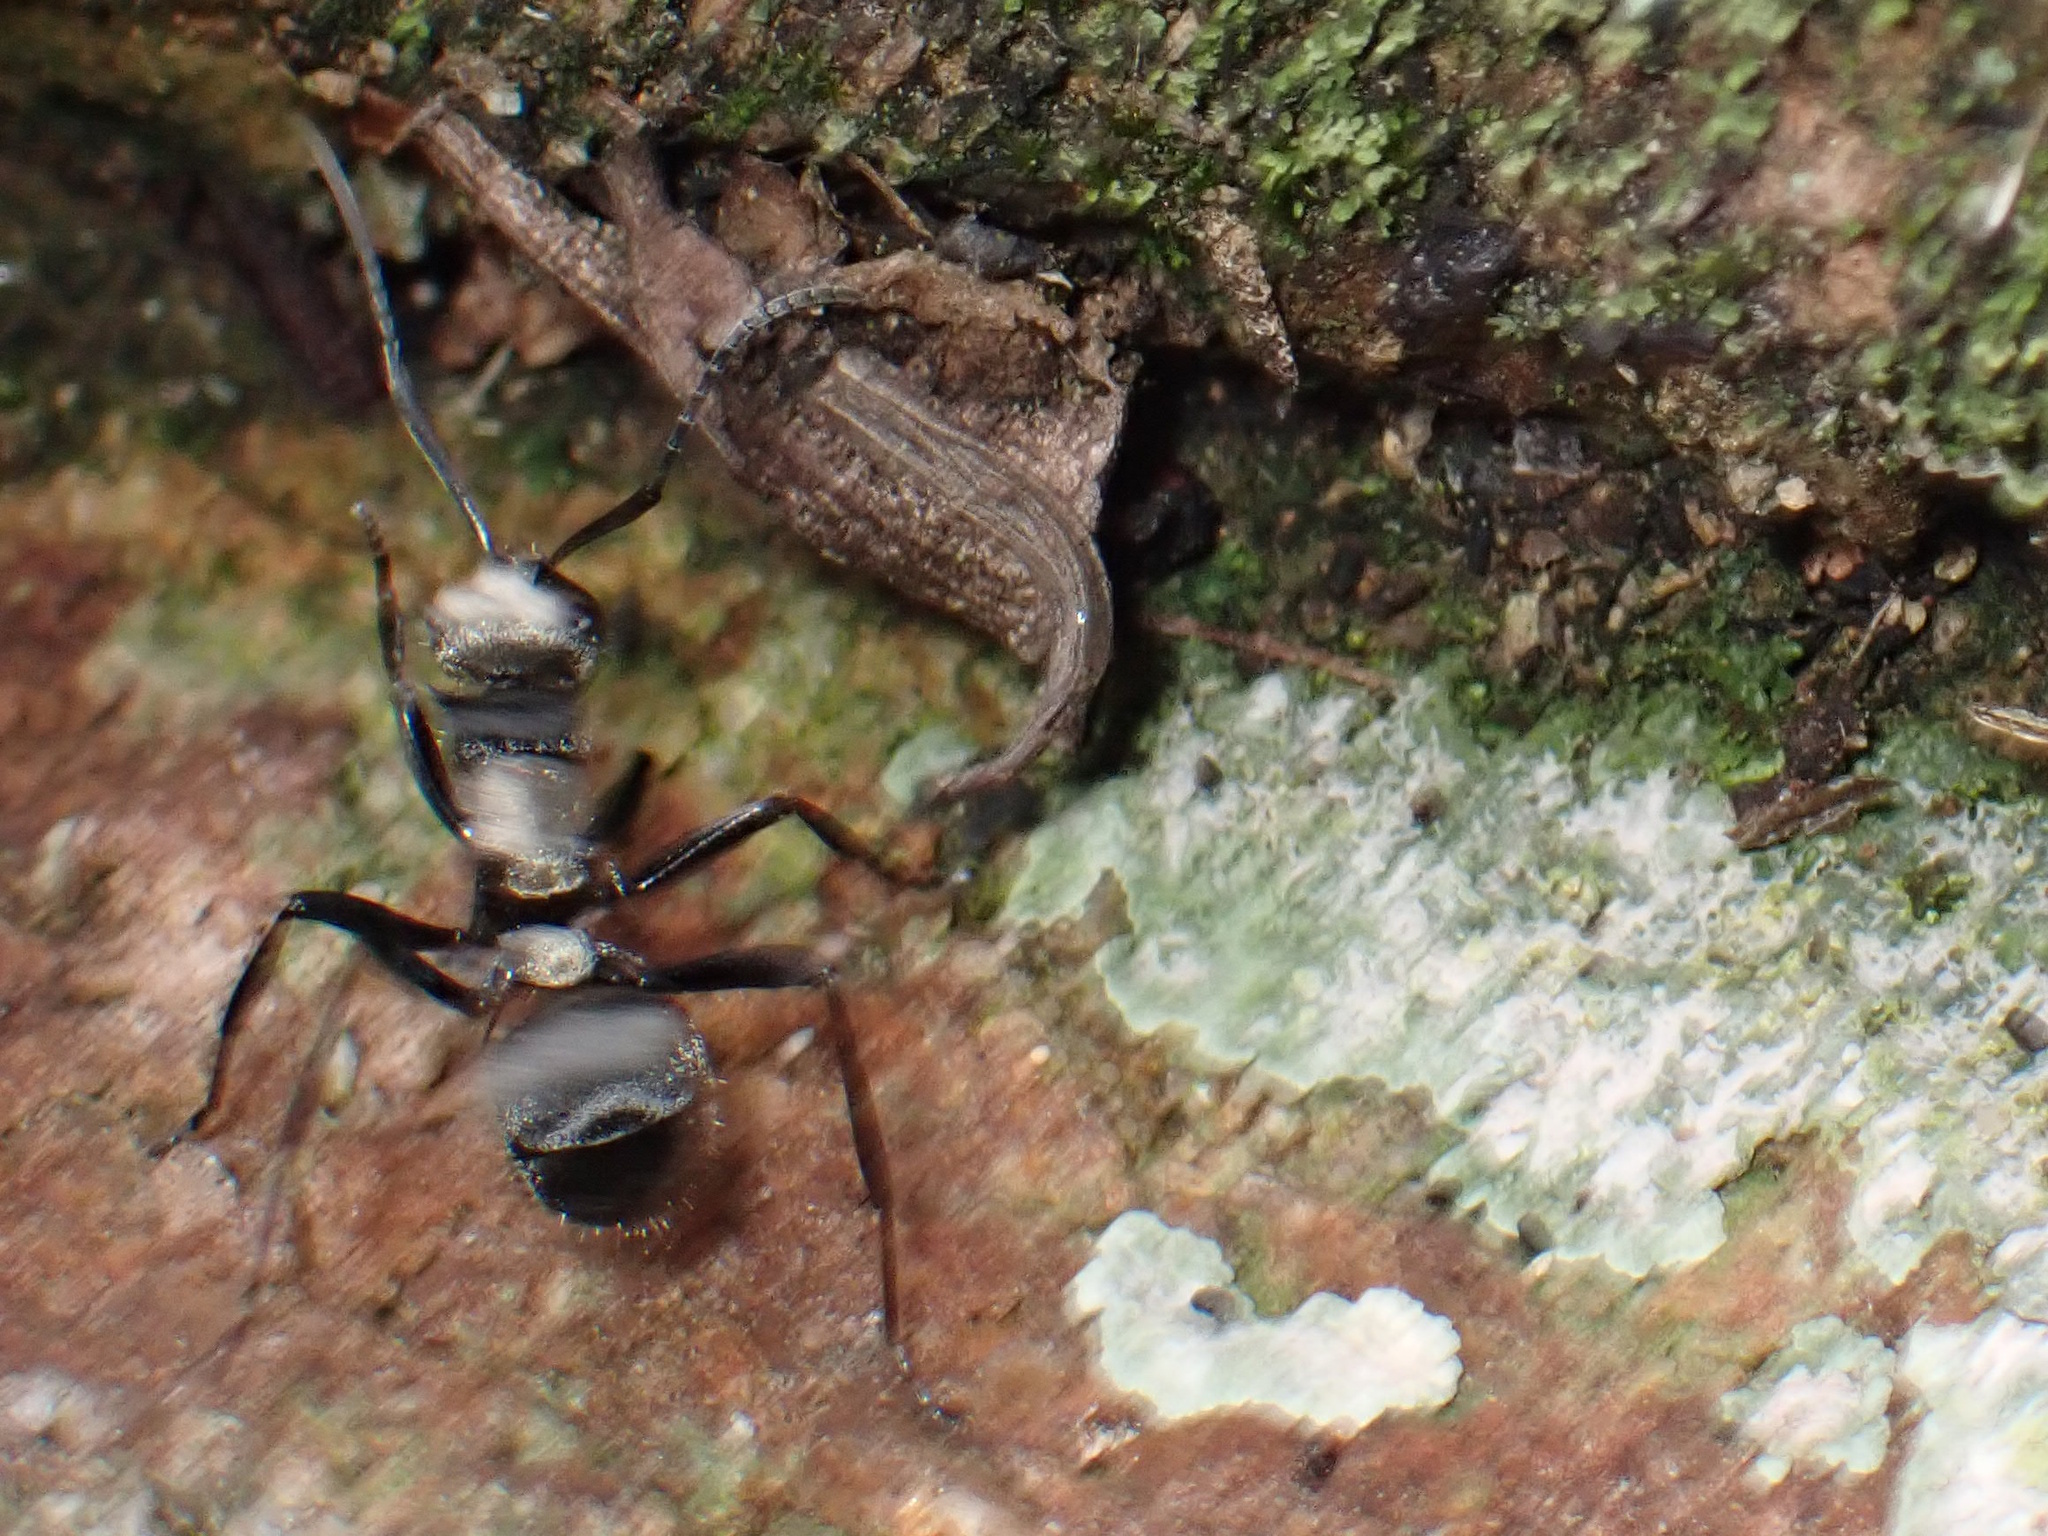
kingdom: Animalia
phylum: Arthropoda
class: Insecta
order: Hymenoptera
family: Formicidae
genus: Polyrhachis
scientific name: Polyrhachis daemeli
